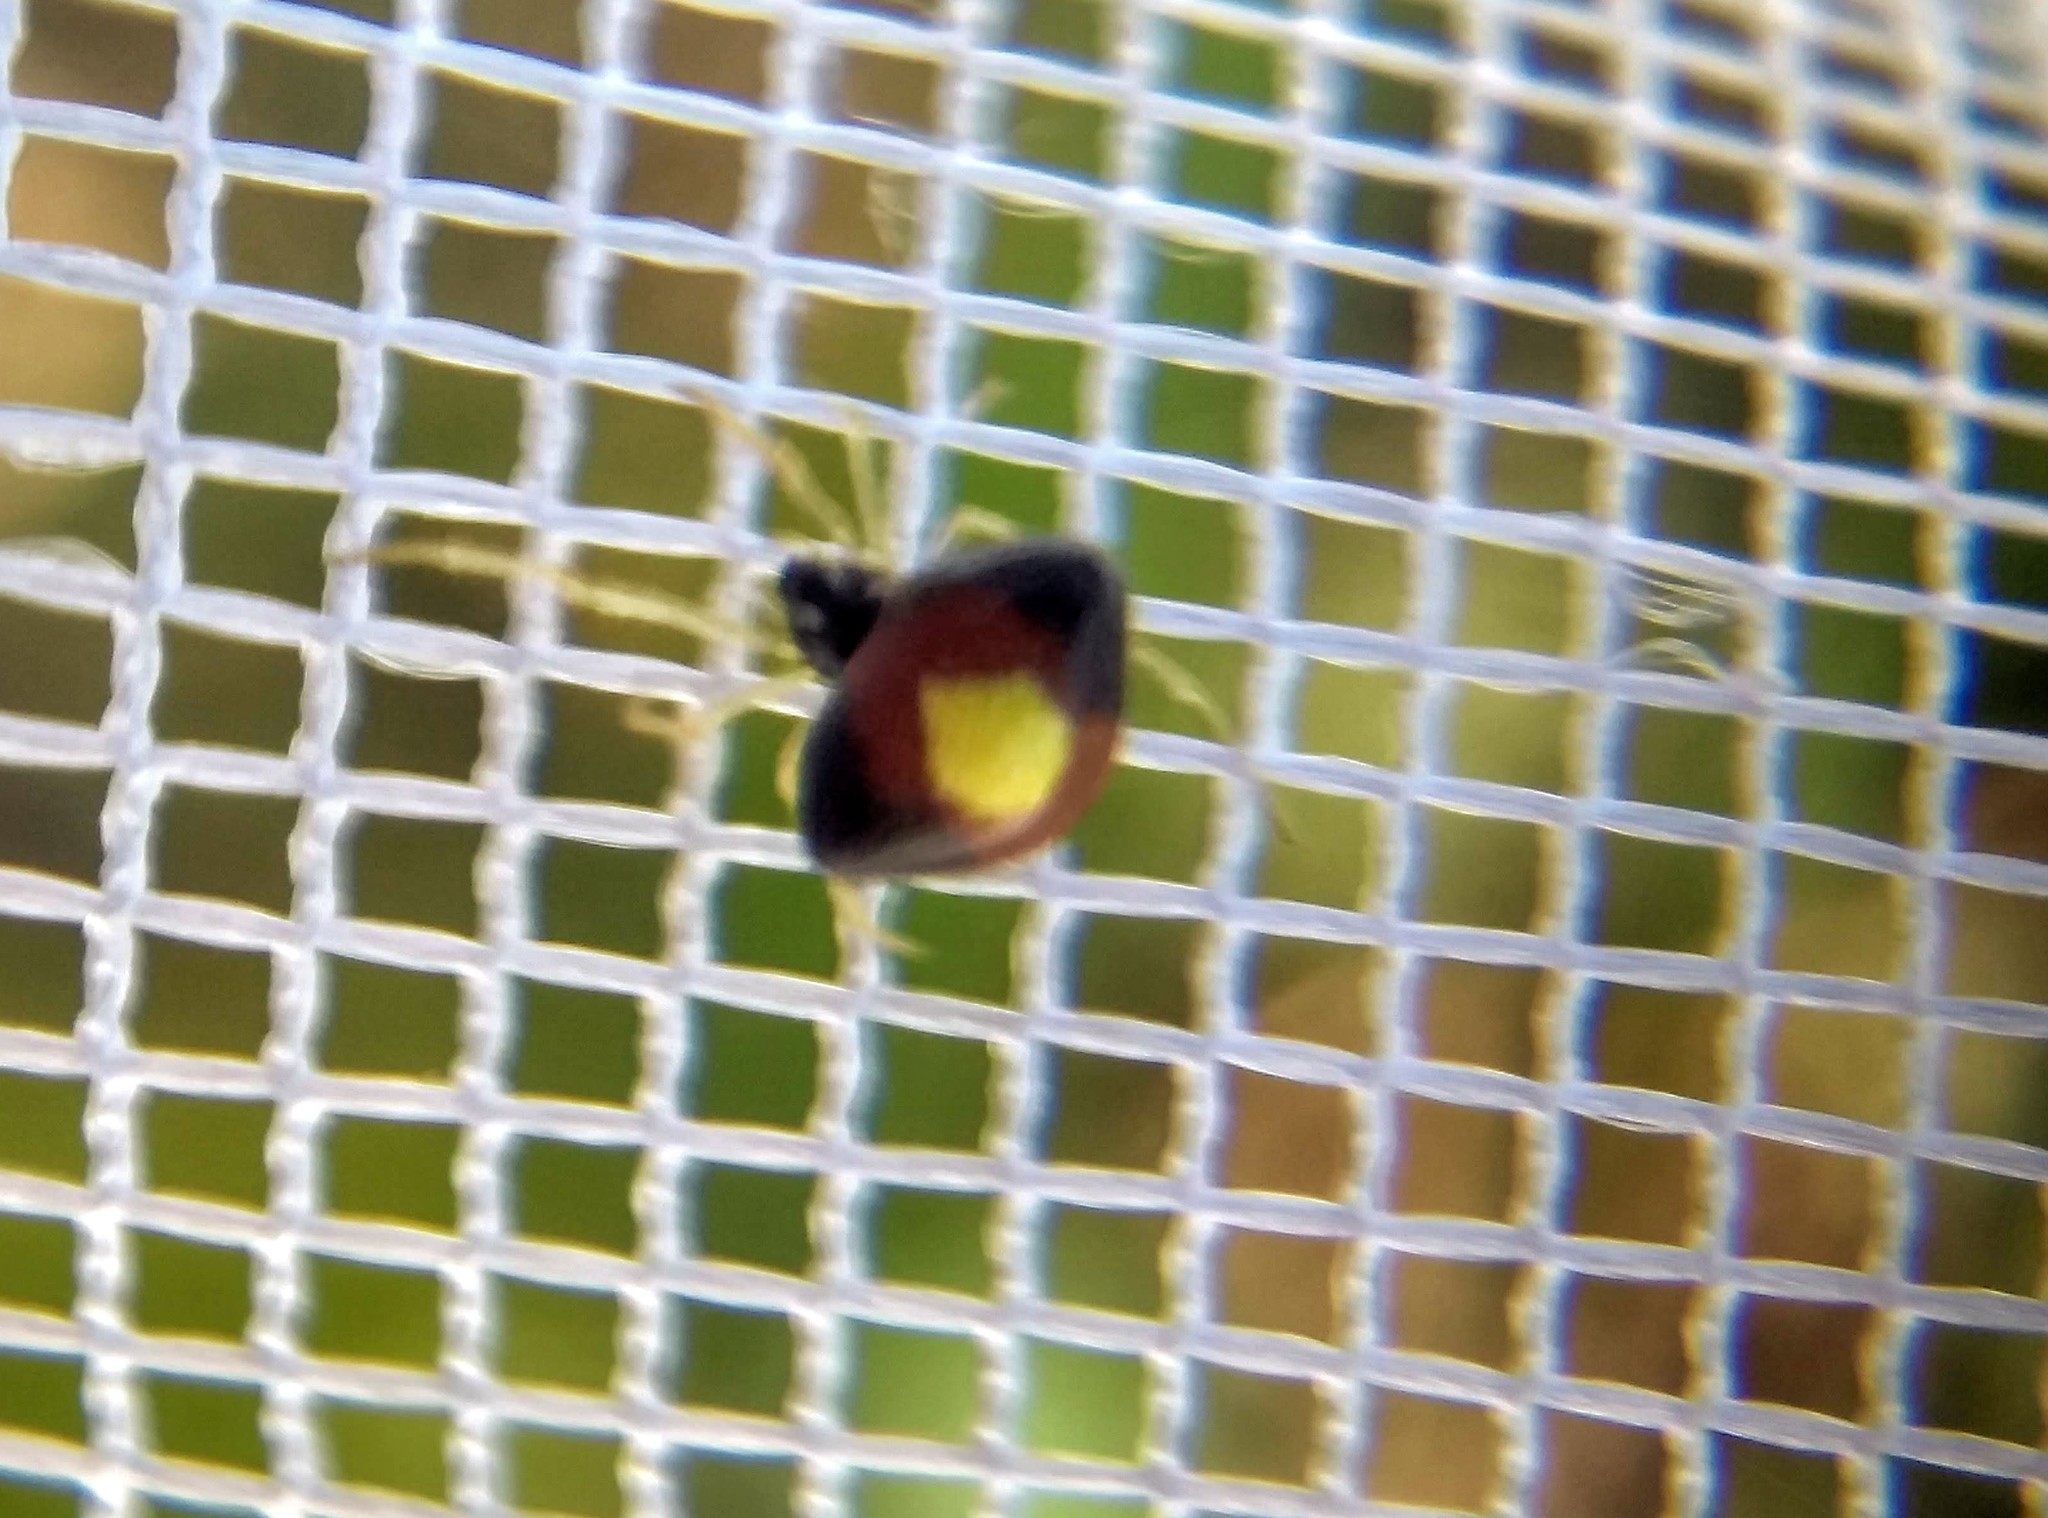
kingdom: Animalia
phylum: Arthropoda
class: Arachnida
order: Araneae
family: Theridiidae
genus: Theridula
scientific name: Theridula emertoni
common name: Emerton's bitubercled cobweaver
